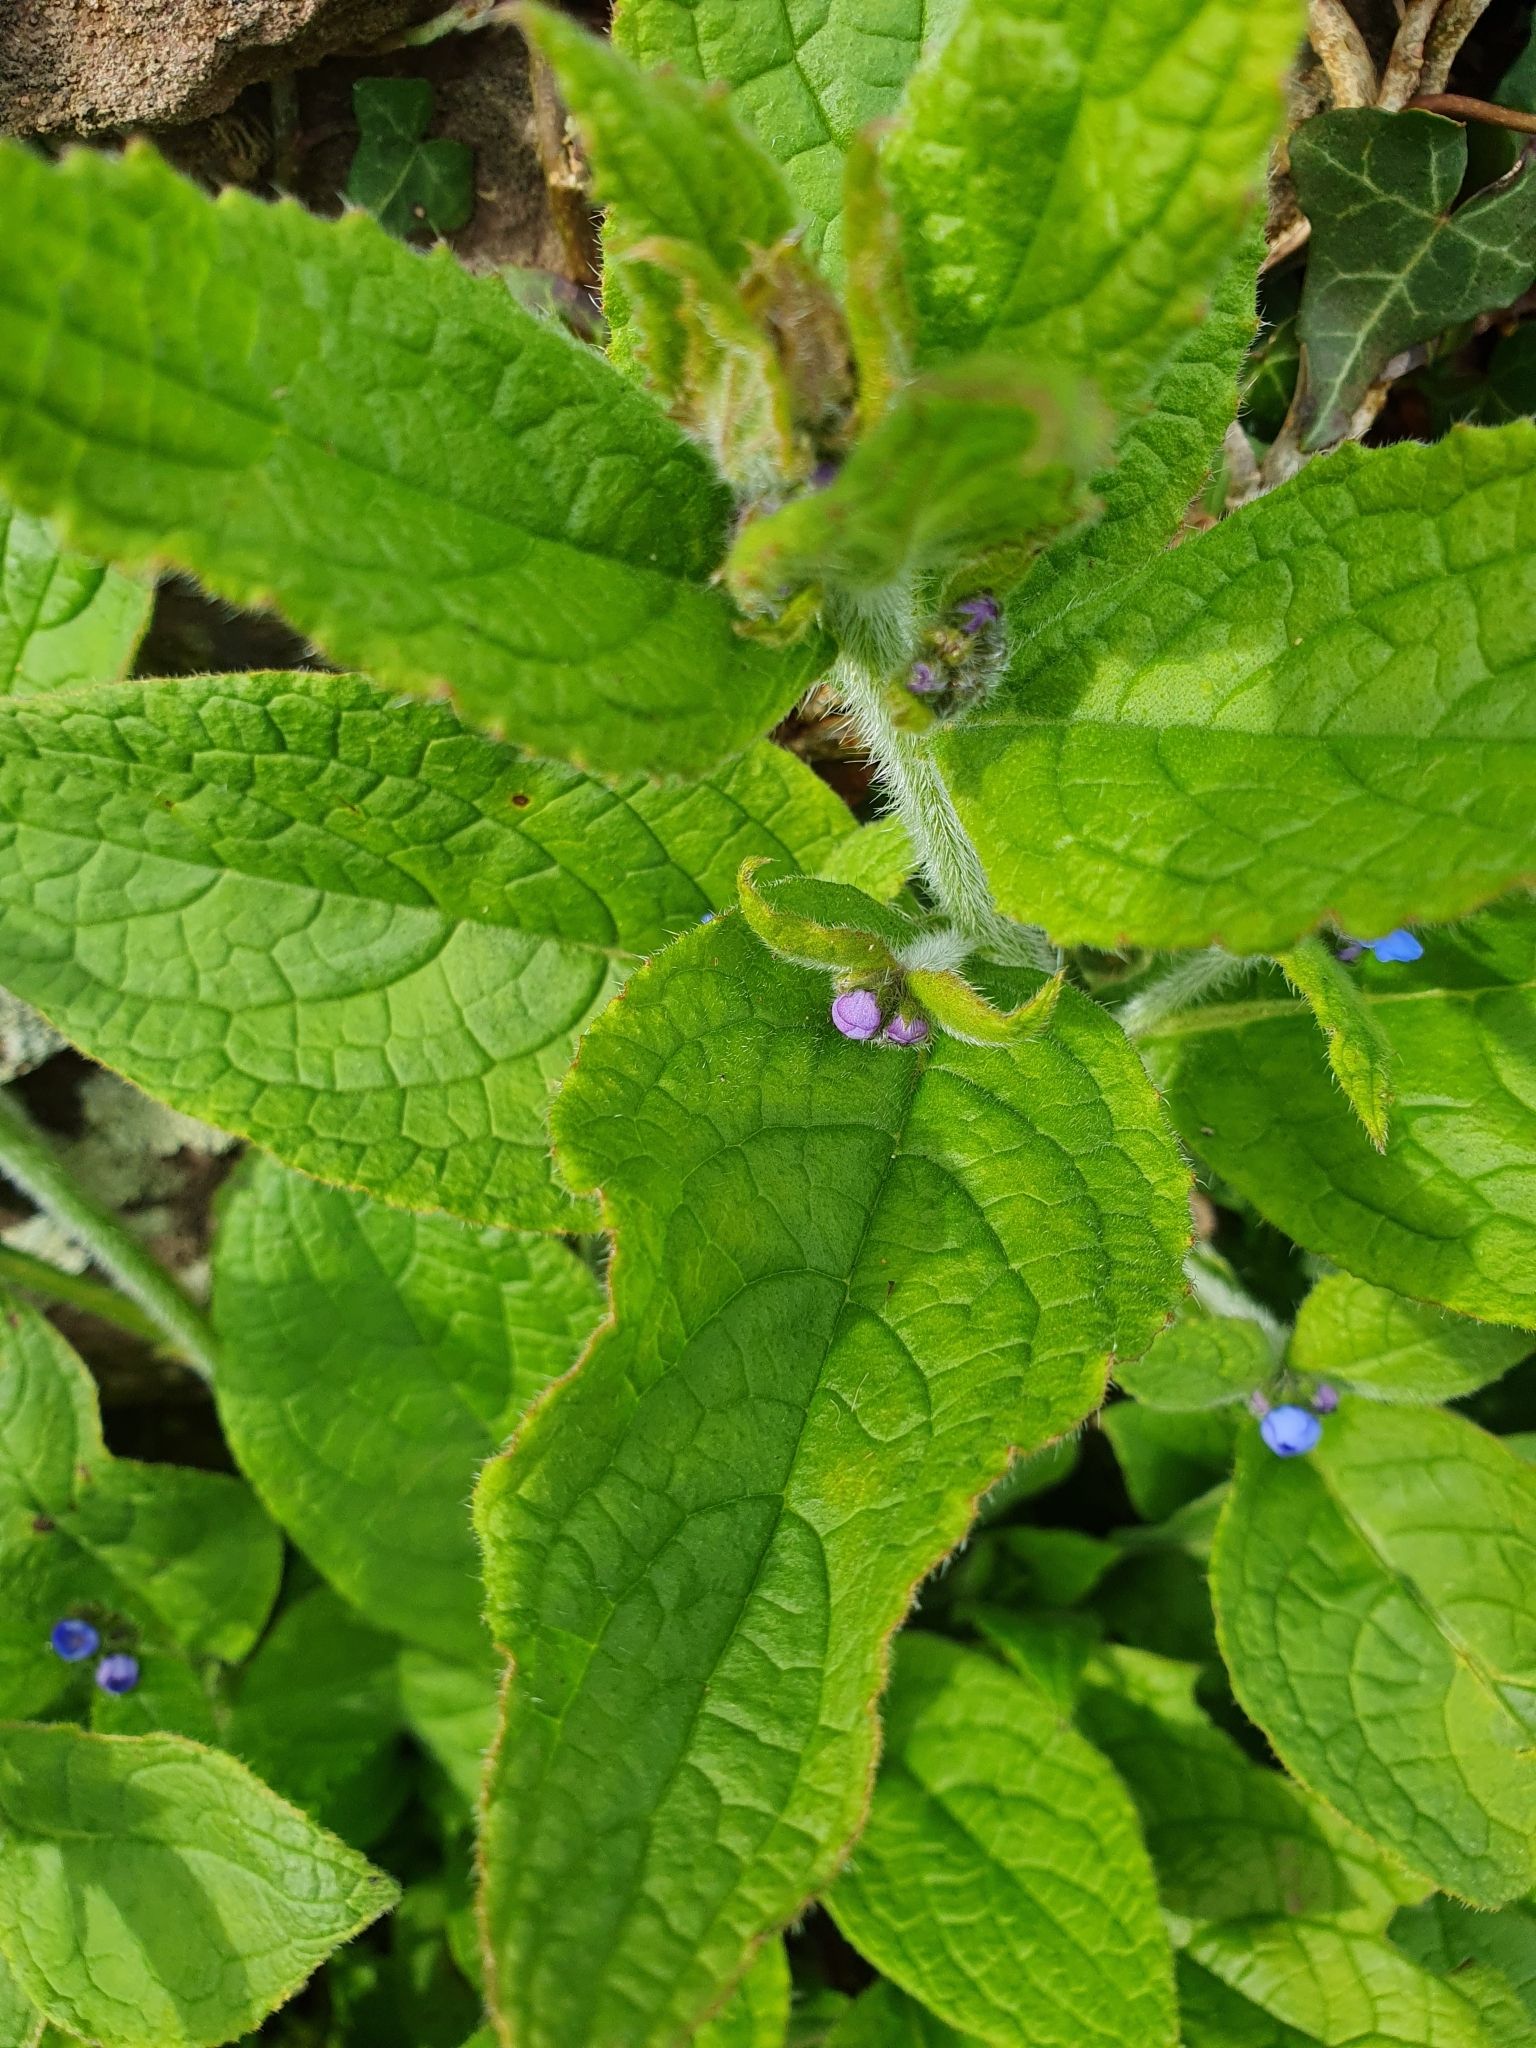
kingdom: Plantae
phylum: Tracheophyta
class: Magnoliopsida
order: Boraginales
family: Boraginaceae
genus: Pentaglottis
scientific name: Pentaglottis sempervirens
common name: Green alkanet
